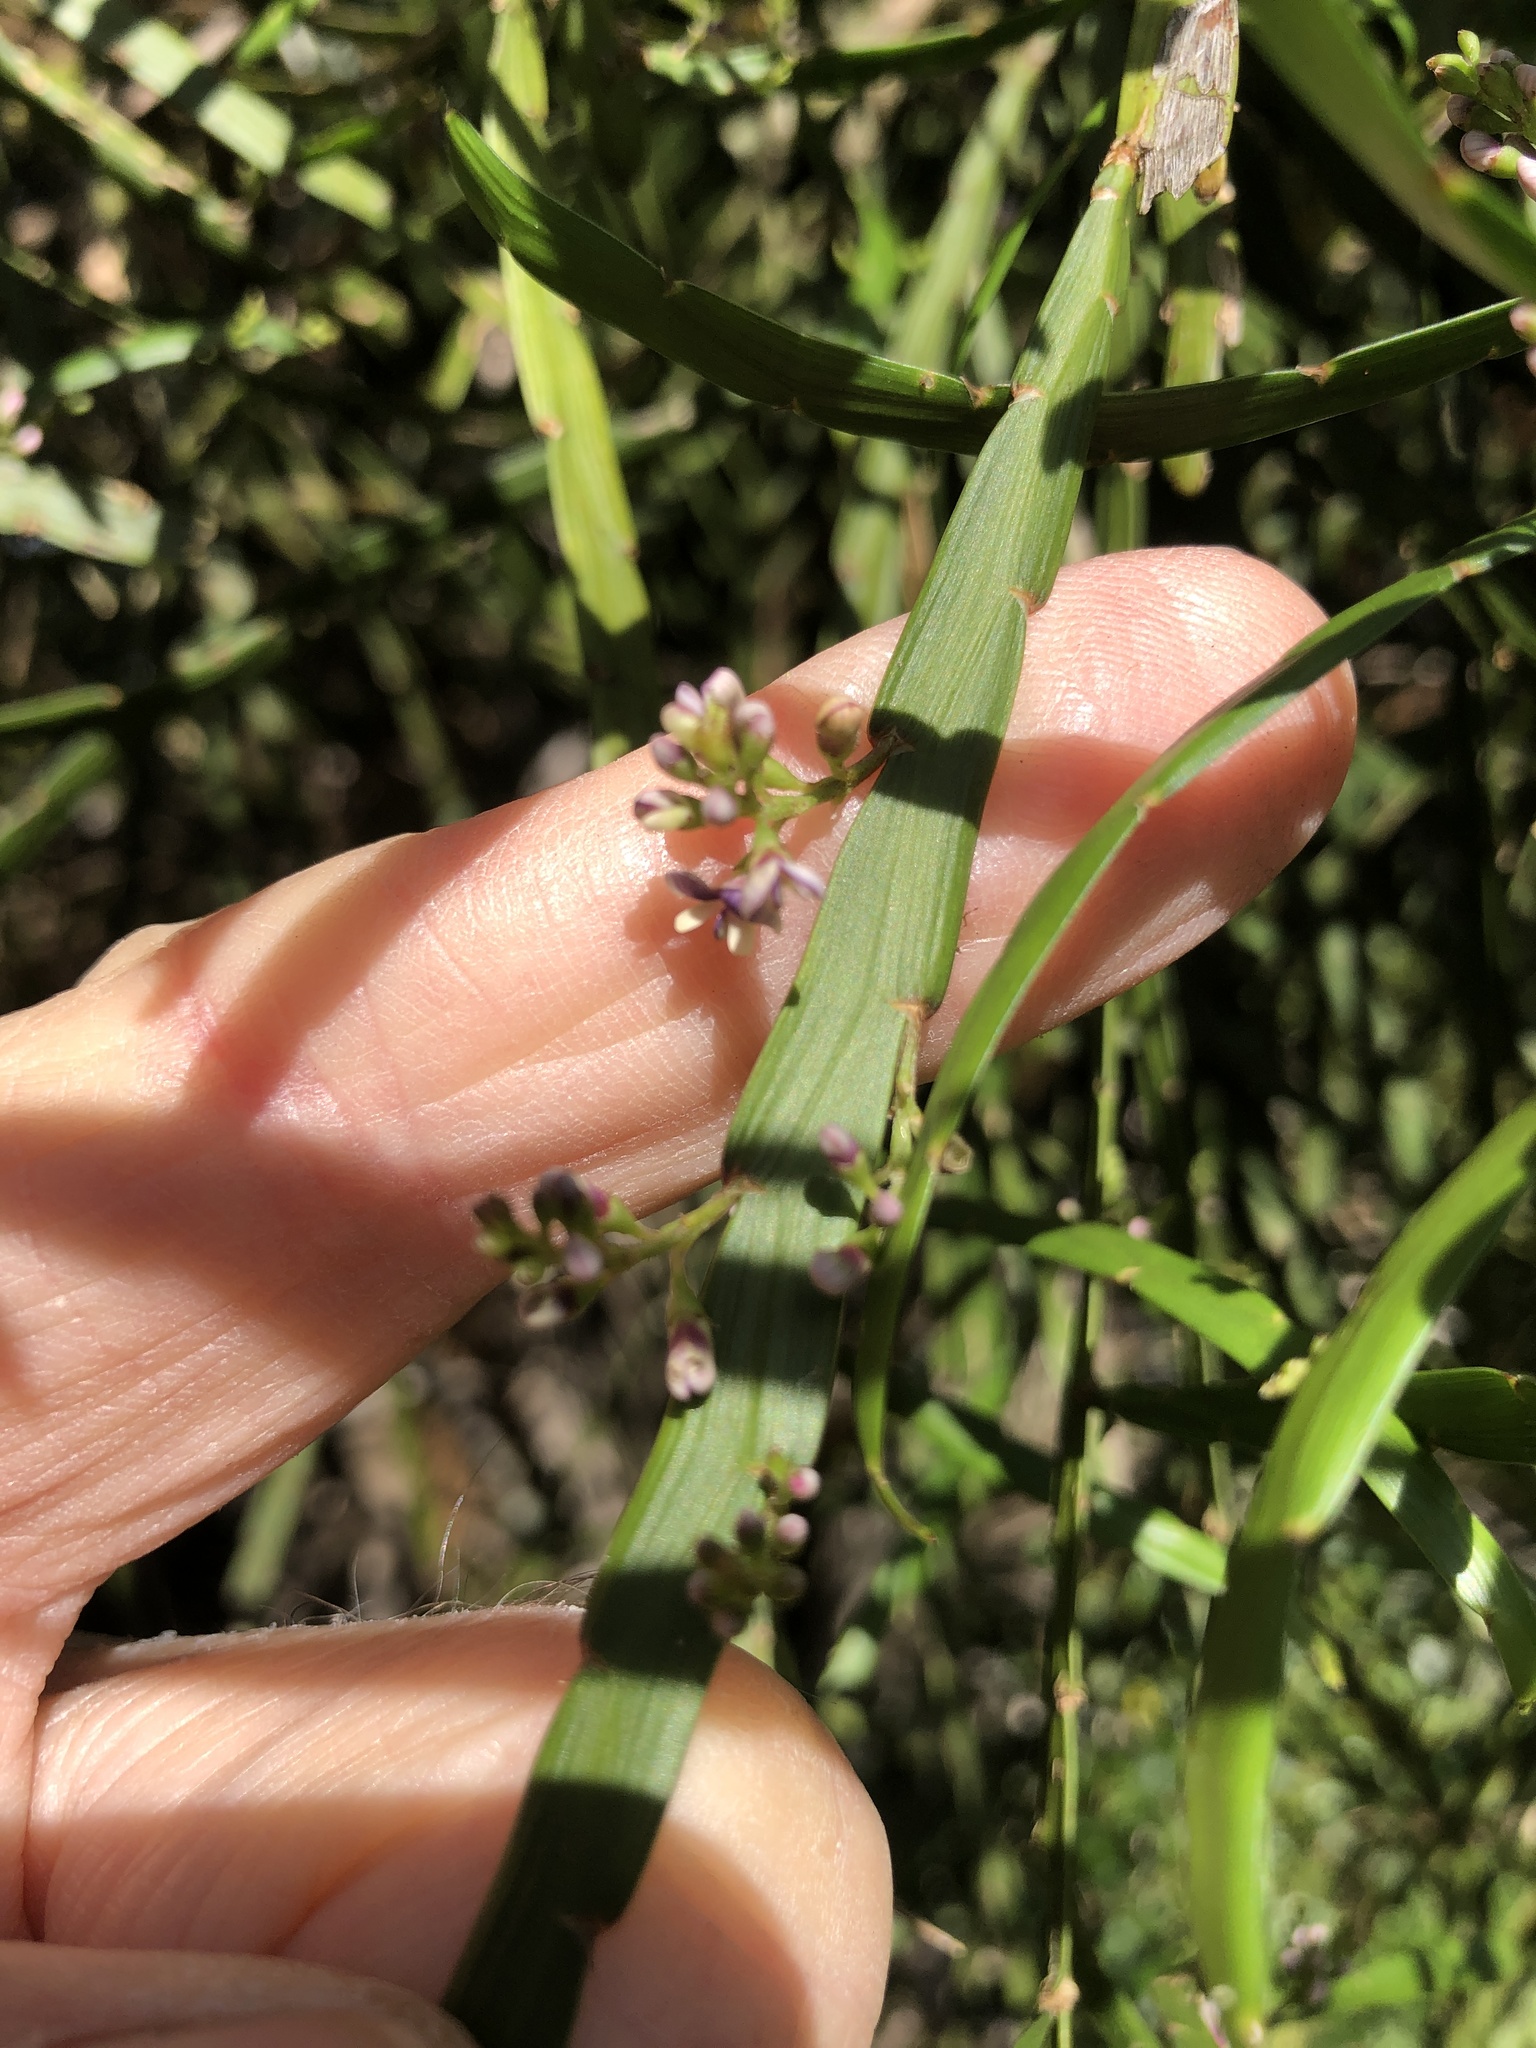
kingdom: Plantae
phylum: Tracheophyta
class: Magnoliopsida
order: Fabales
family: Fabaceae
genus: Carmichaelia
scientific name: Carmichaelia australis
